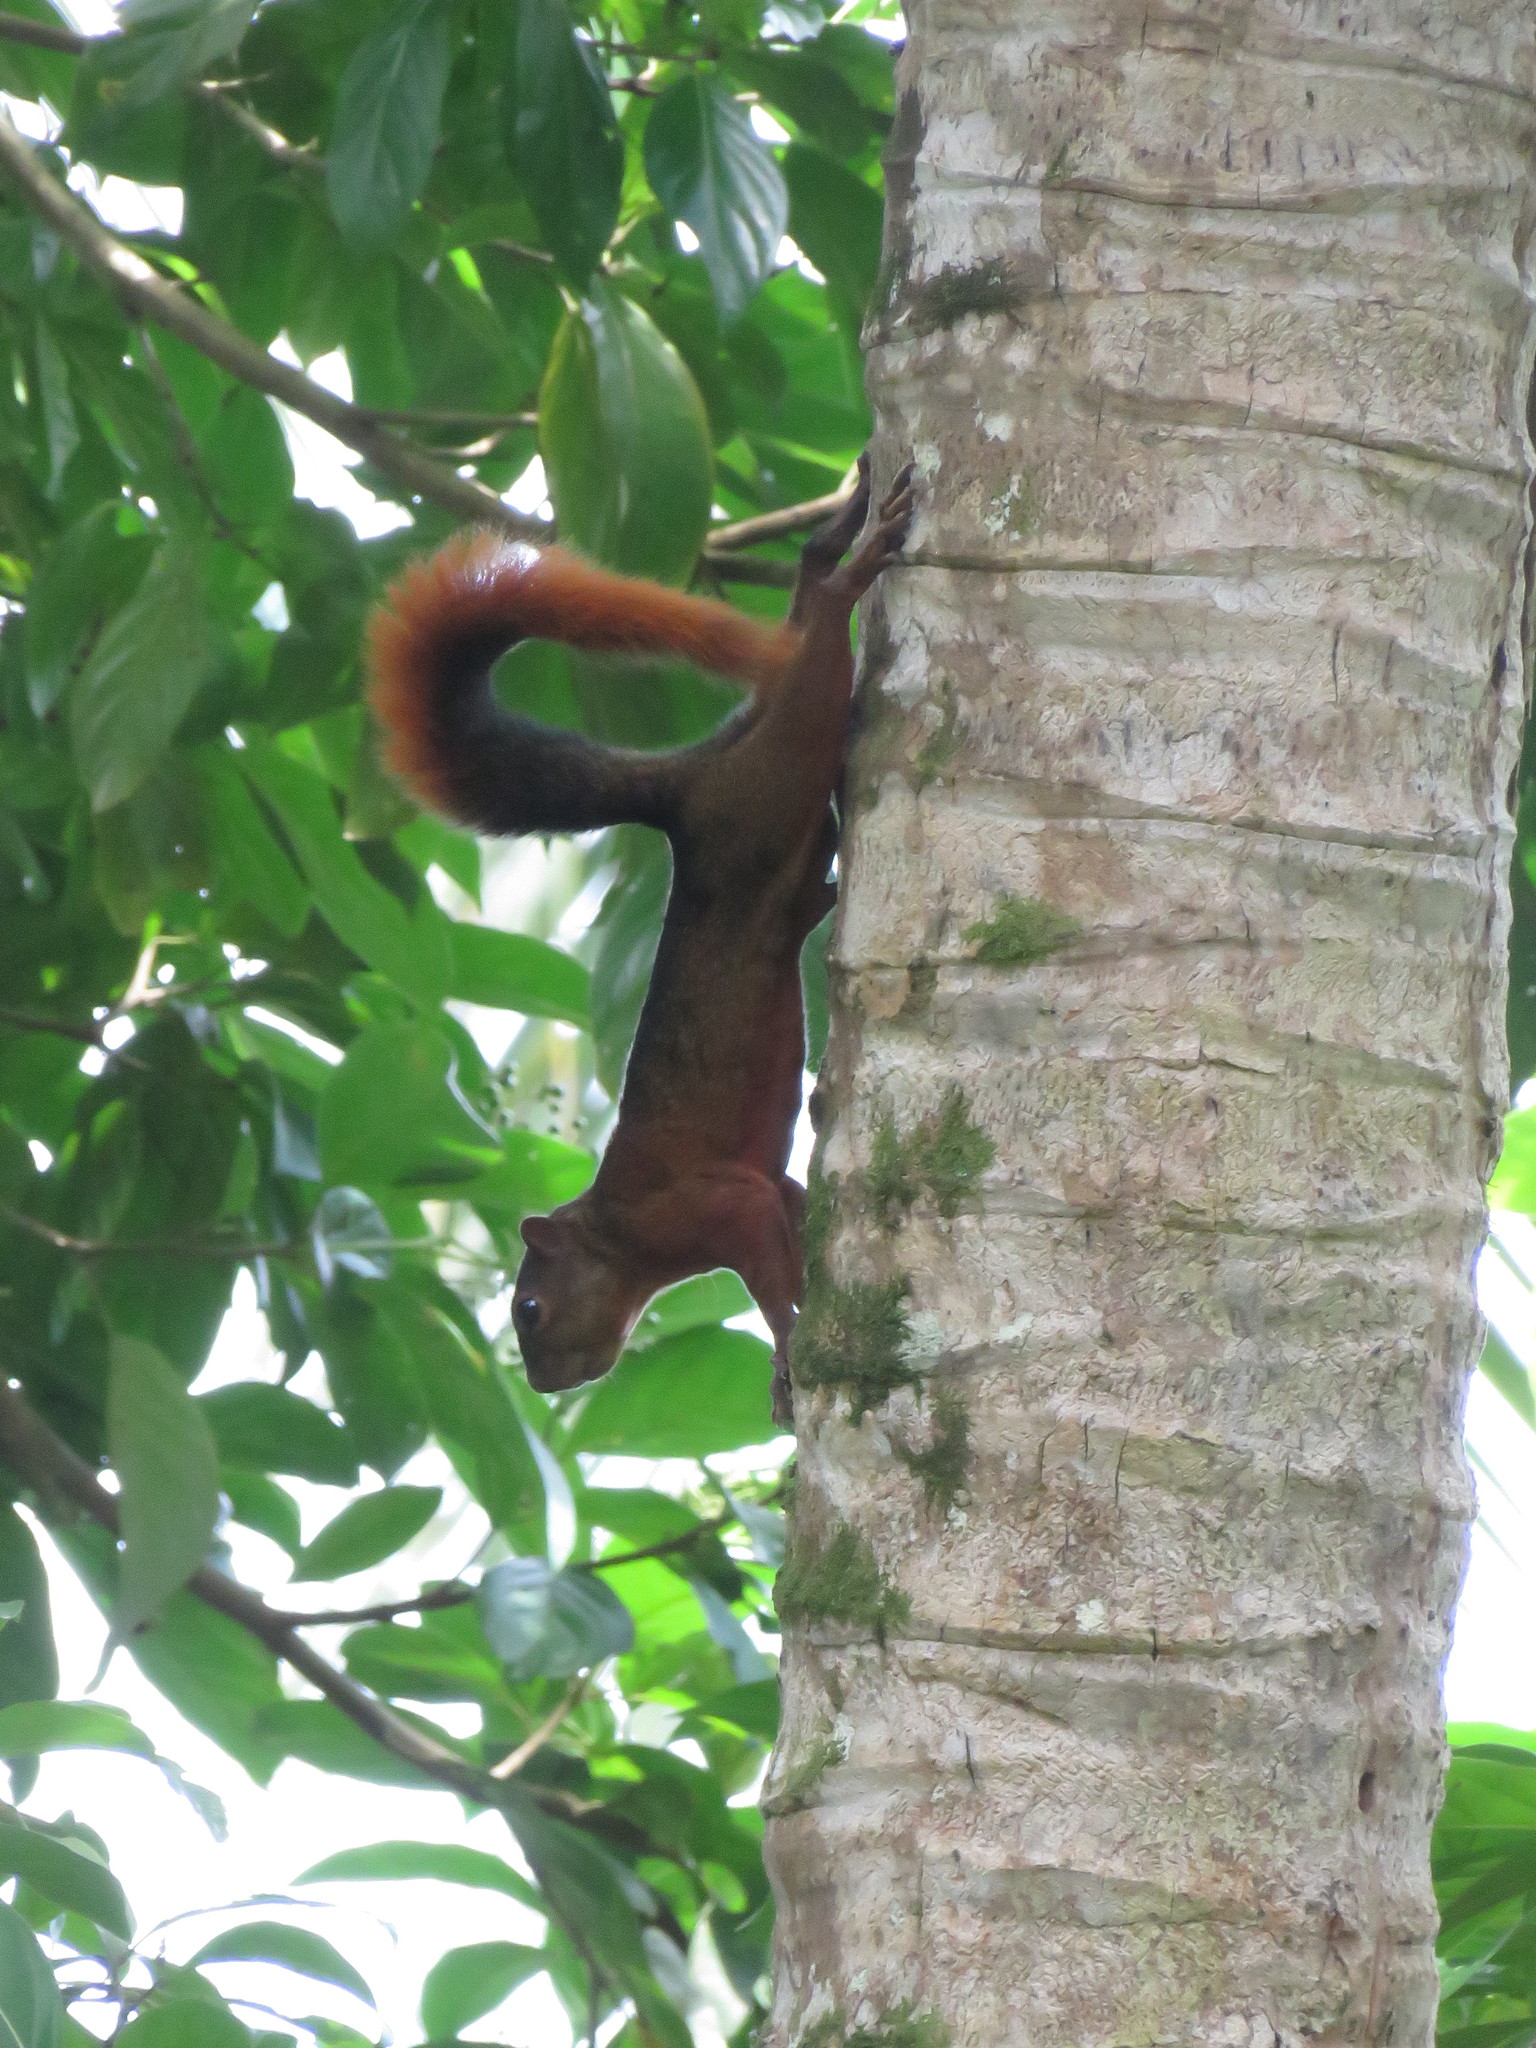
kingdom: Animalia
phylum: Chordata
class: Mammalia
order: Rodentia
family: Sciuridae
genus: Sciurus
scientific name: Sciurus granatensis
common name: Red-tailed squirrel
